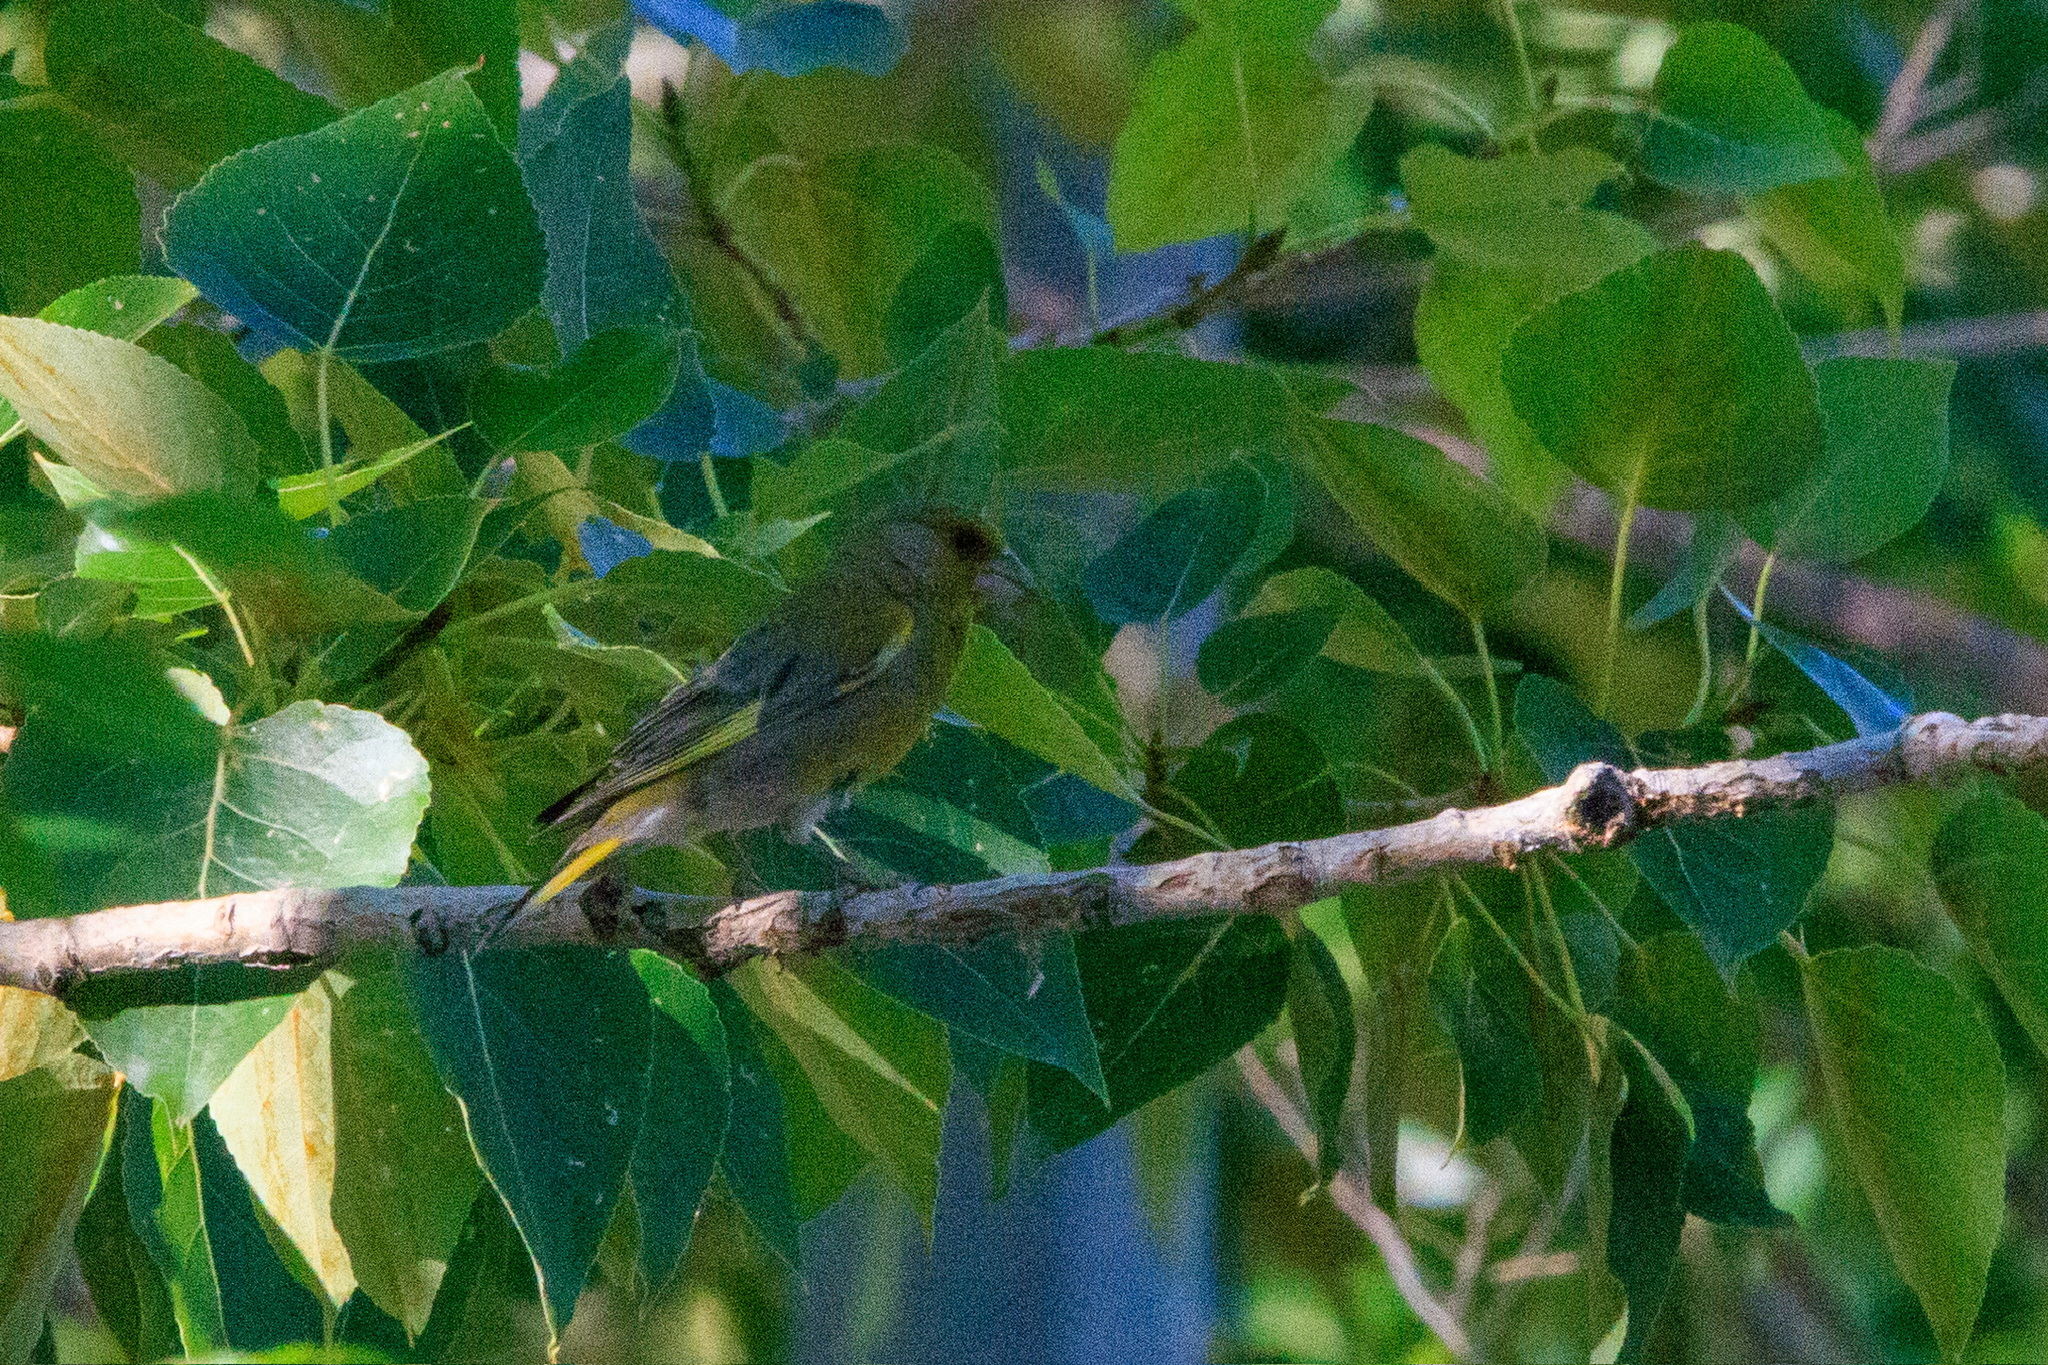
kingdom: Plantae
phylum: Tracheophyta
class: Liliopsida
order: Poales
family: Poaceae
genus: Chloris
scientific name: Chloris chloris
